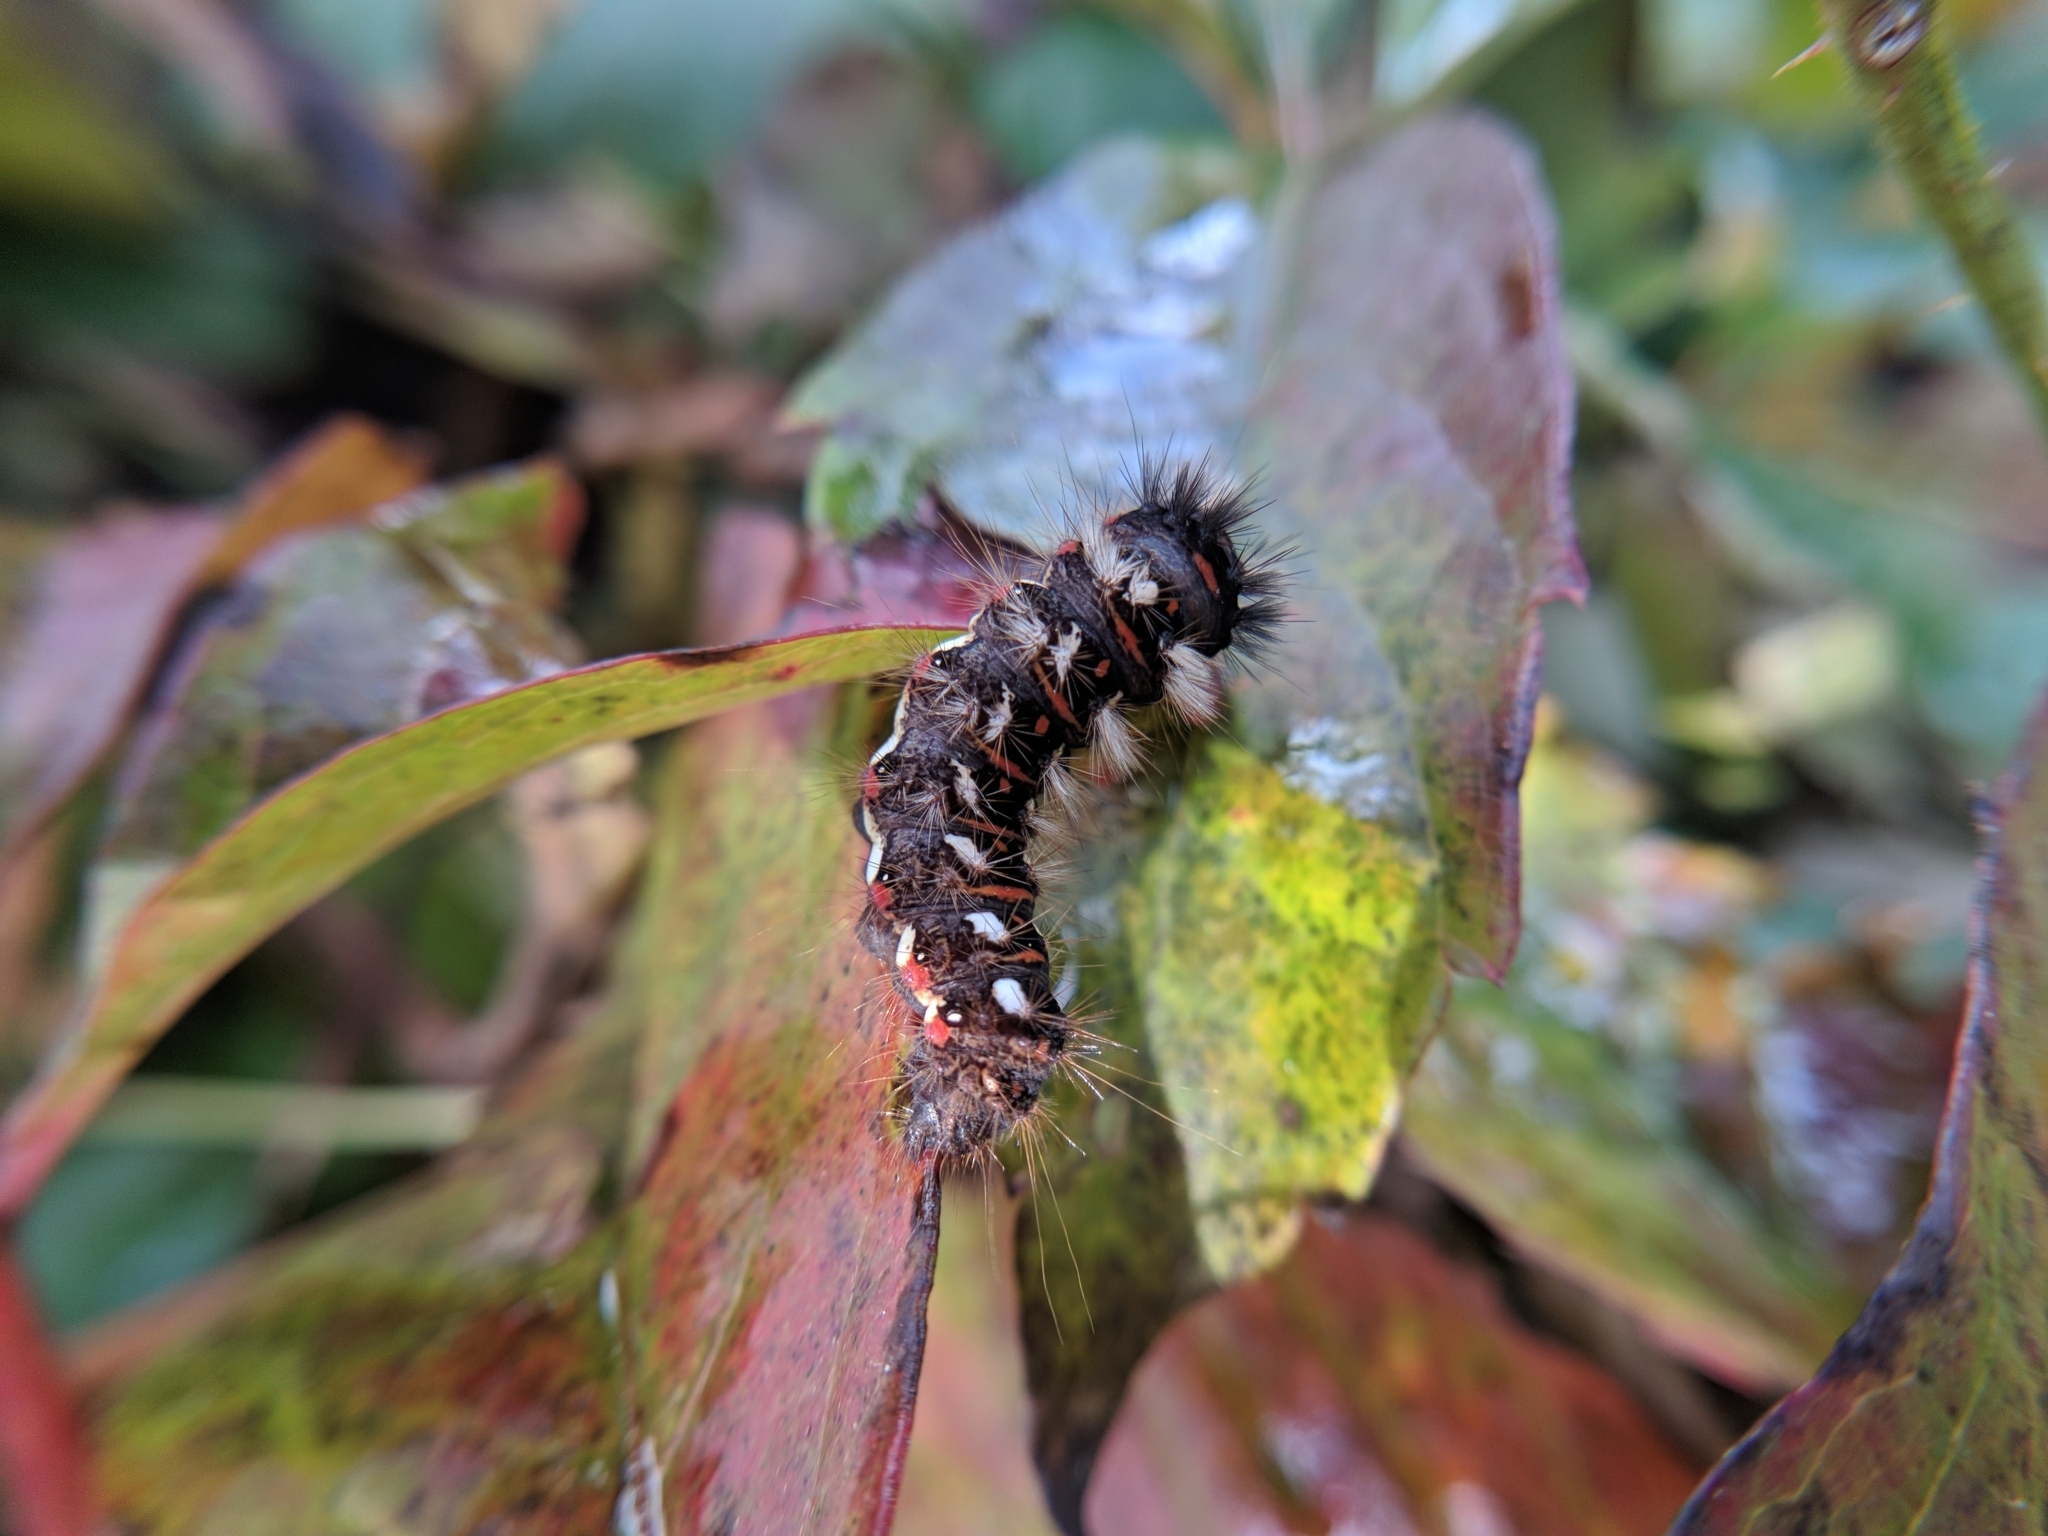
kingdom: Animalia
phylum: Arthropoda
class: Insecta
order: Lepidoptera
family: Noctuidae
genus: Acronicta
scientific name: Acronicta rumicis
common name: Knot grass
